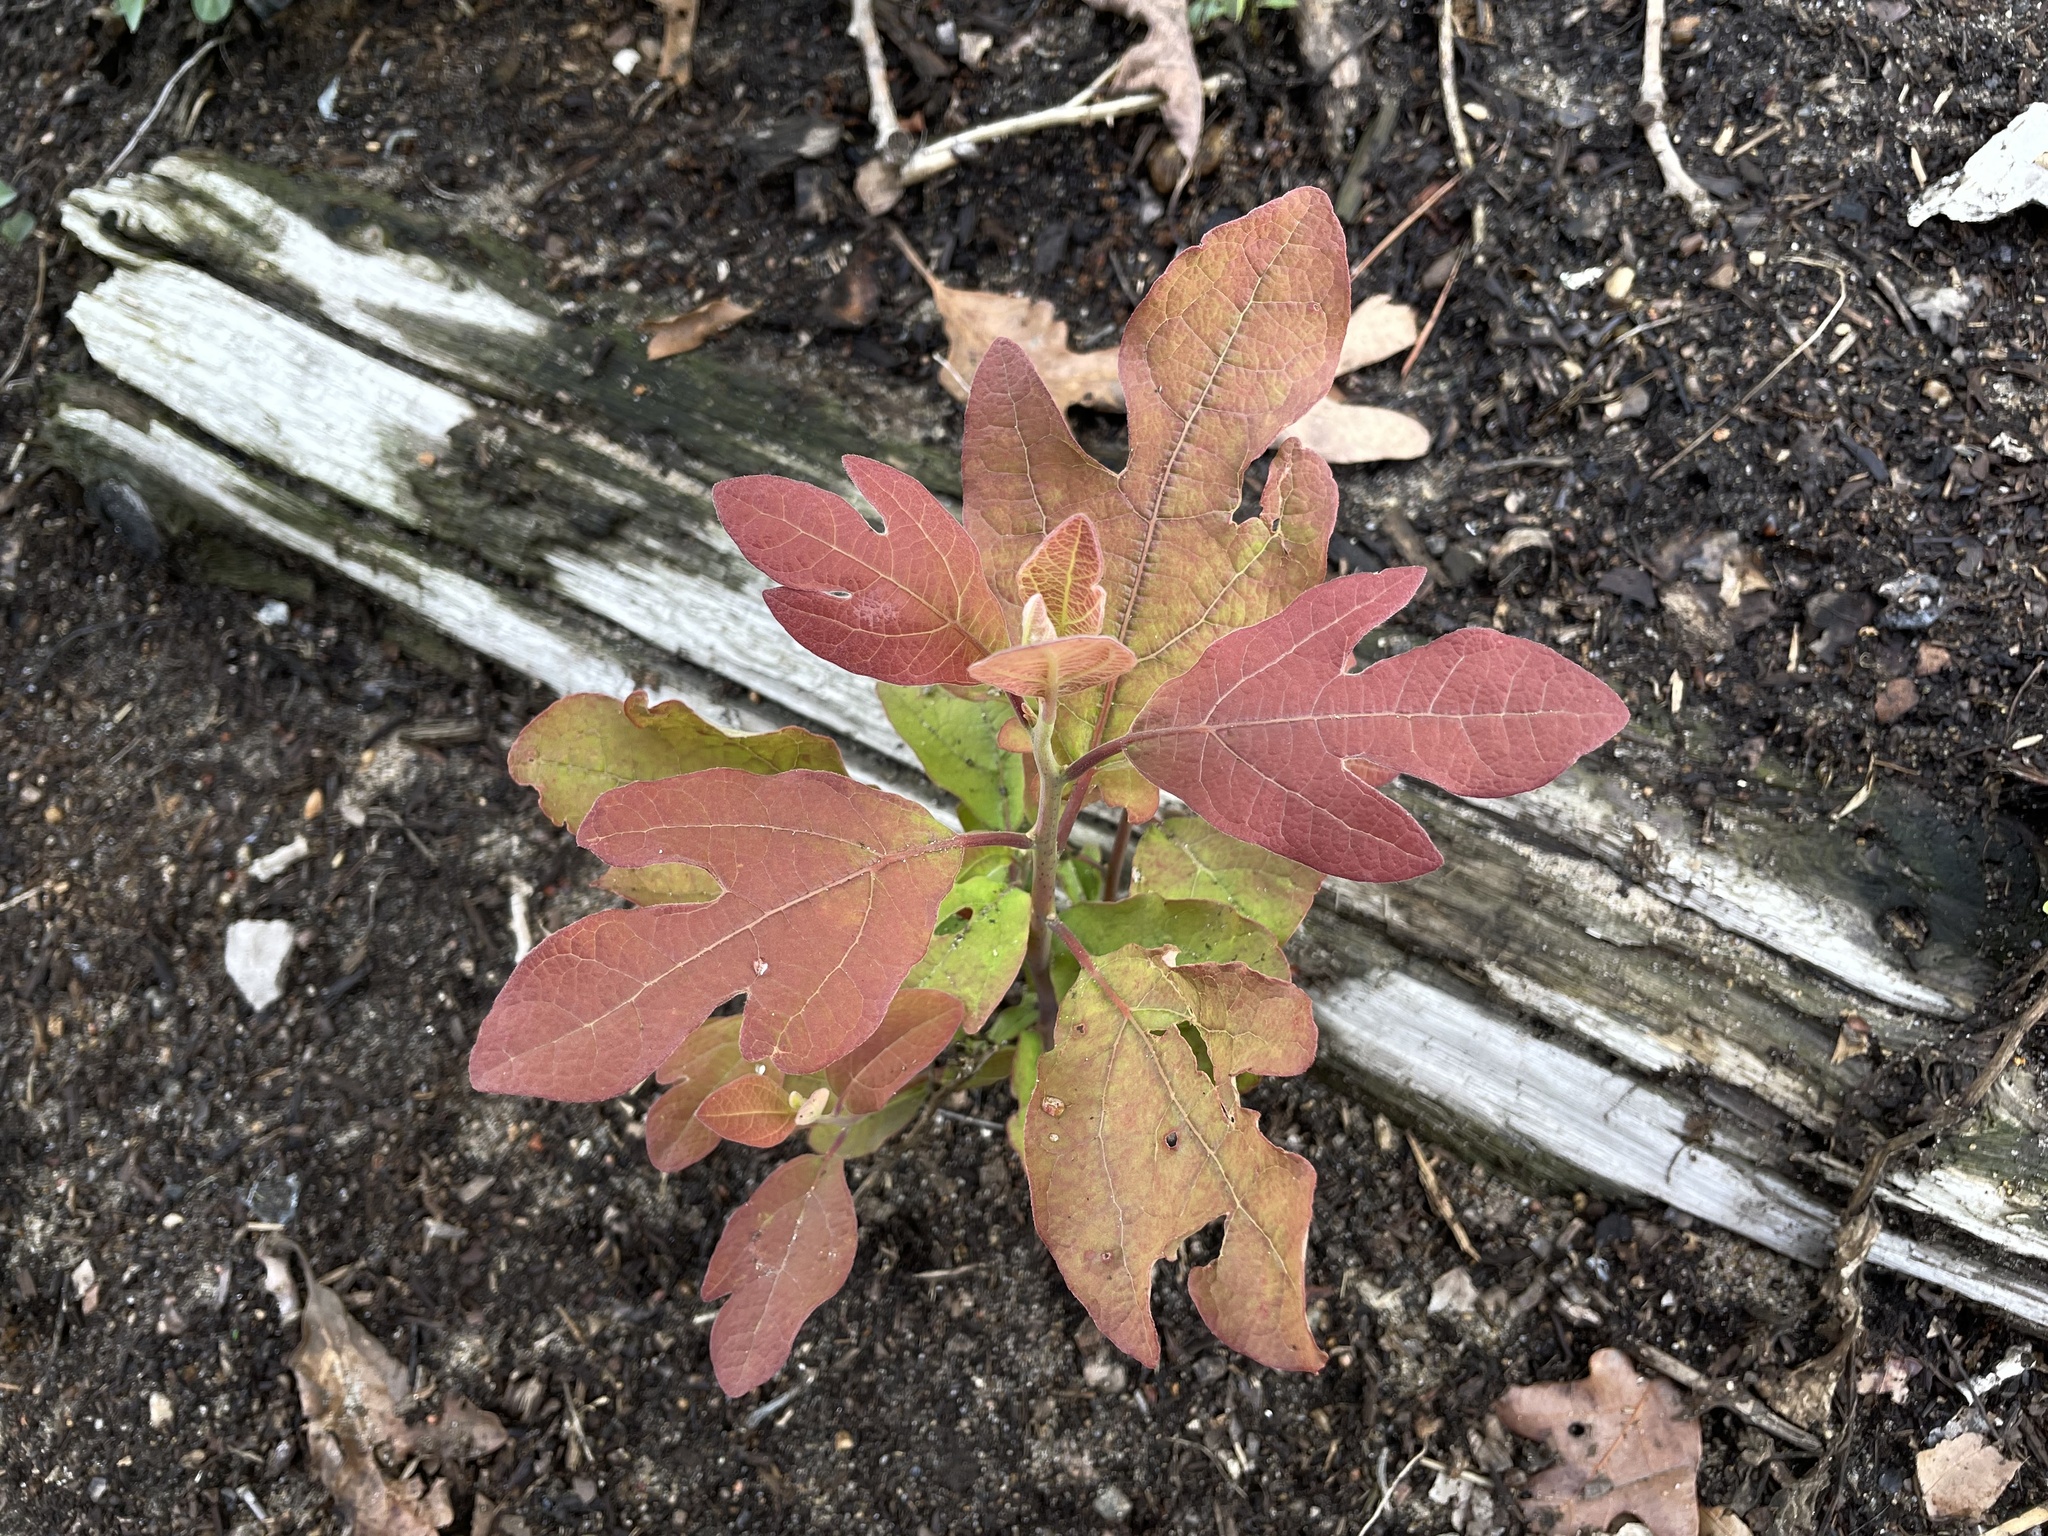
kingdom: Plantae
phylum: Tracheophyta
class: Magnoliopsida
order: Laurales
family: Lauraceae
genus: Sassafras
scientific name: Sassafras albidum
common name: Sassafras
